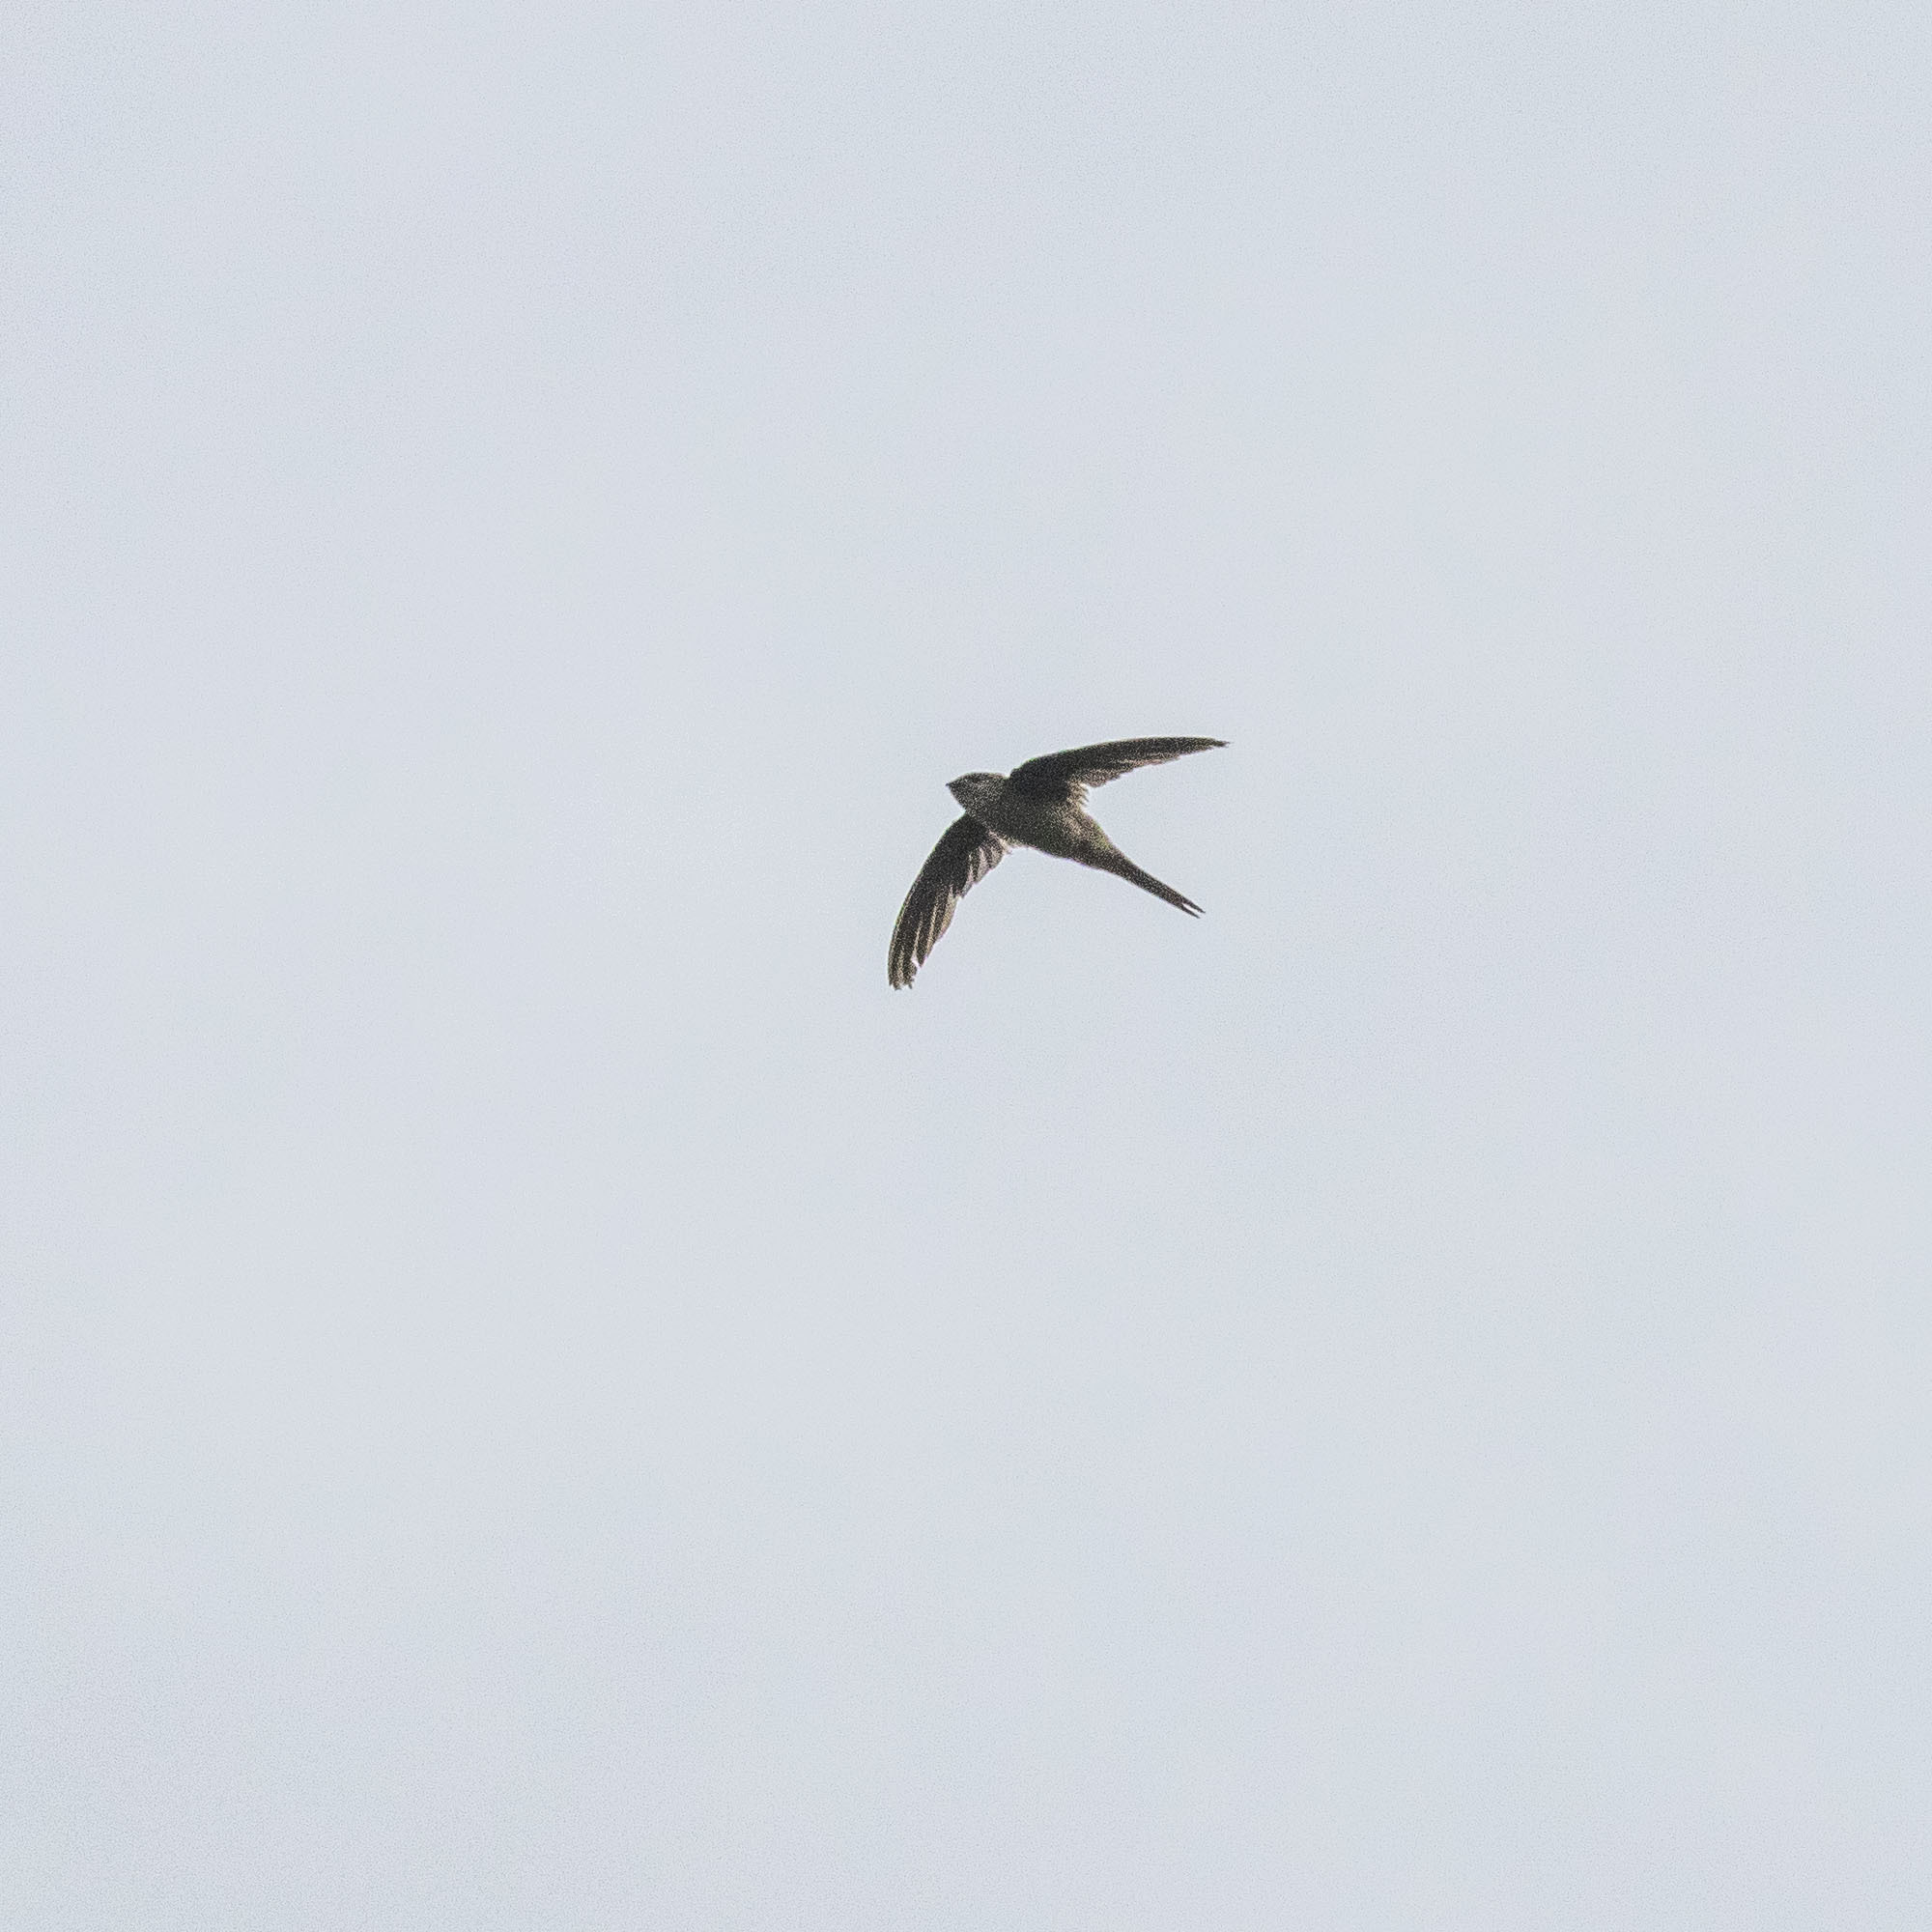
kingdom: Animalia
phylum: Chordata
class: Aves
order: Apodiformes
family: Apodidae
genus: Cypsiurus
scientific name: Cypsiurus balasiensis
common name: Asian palm swift
